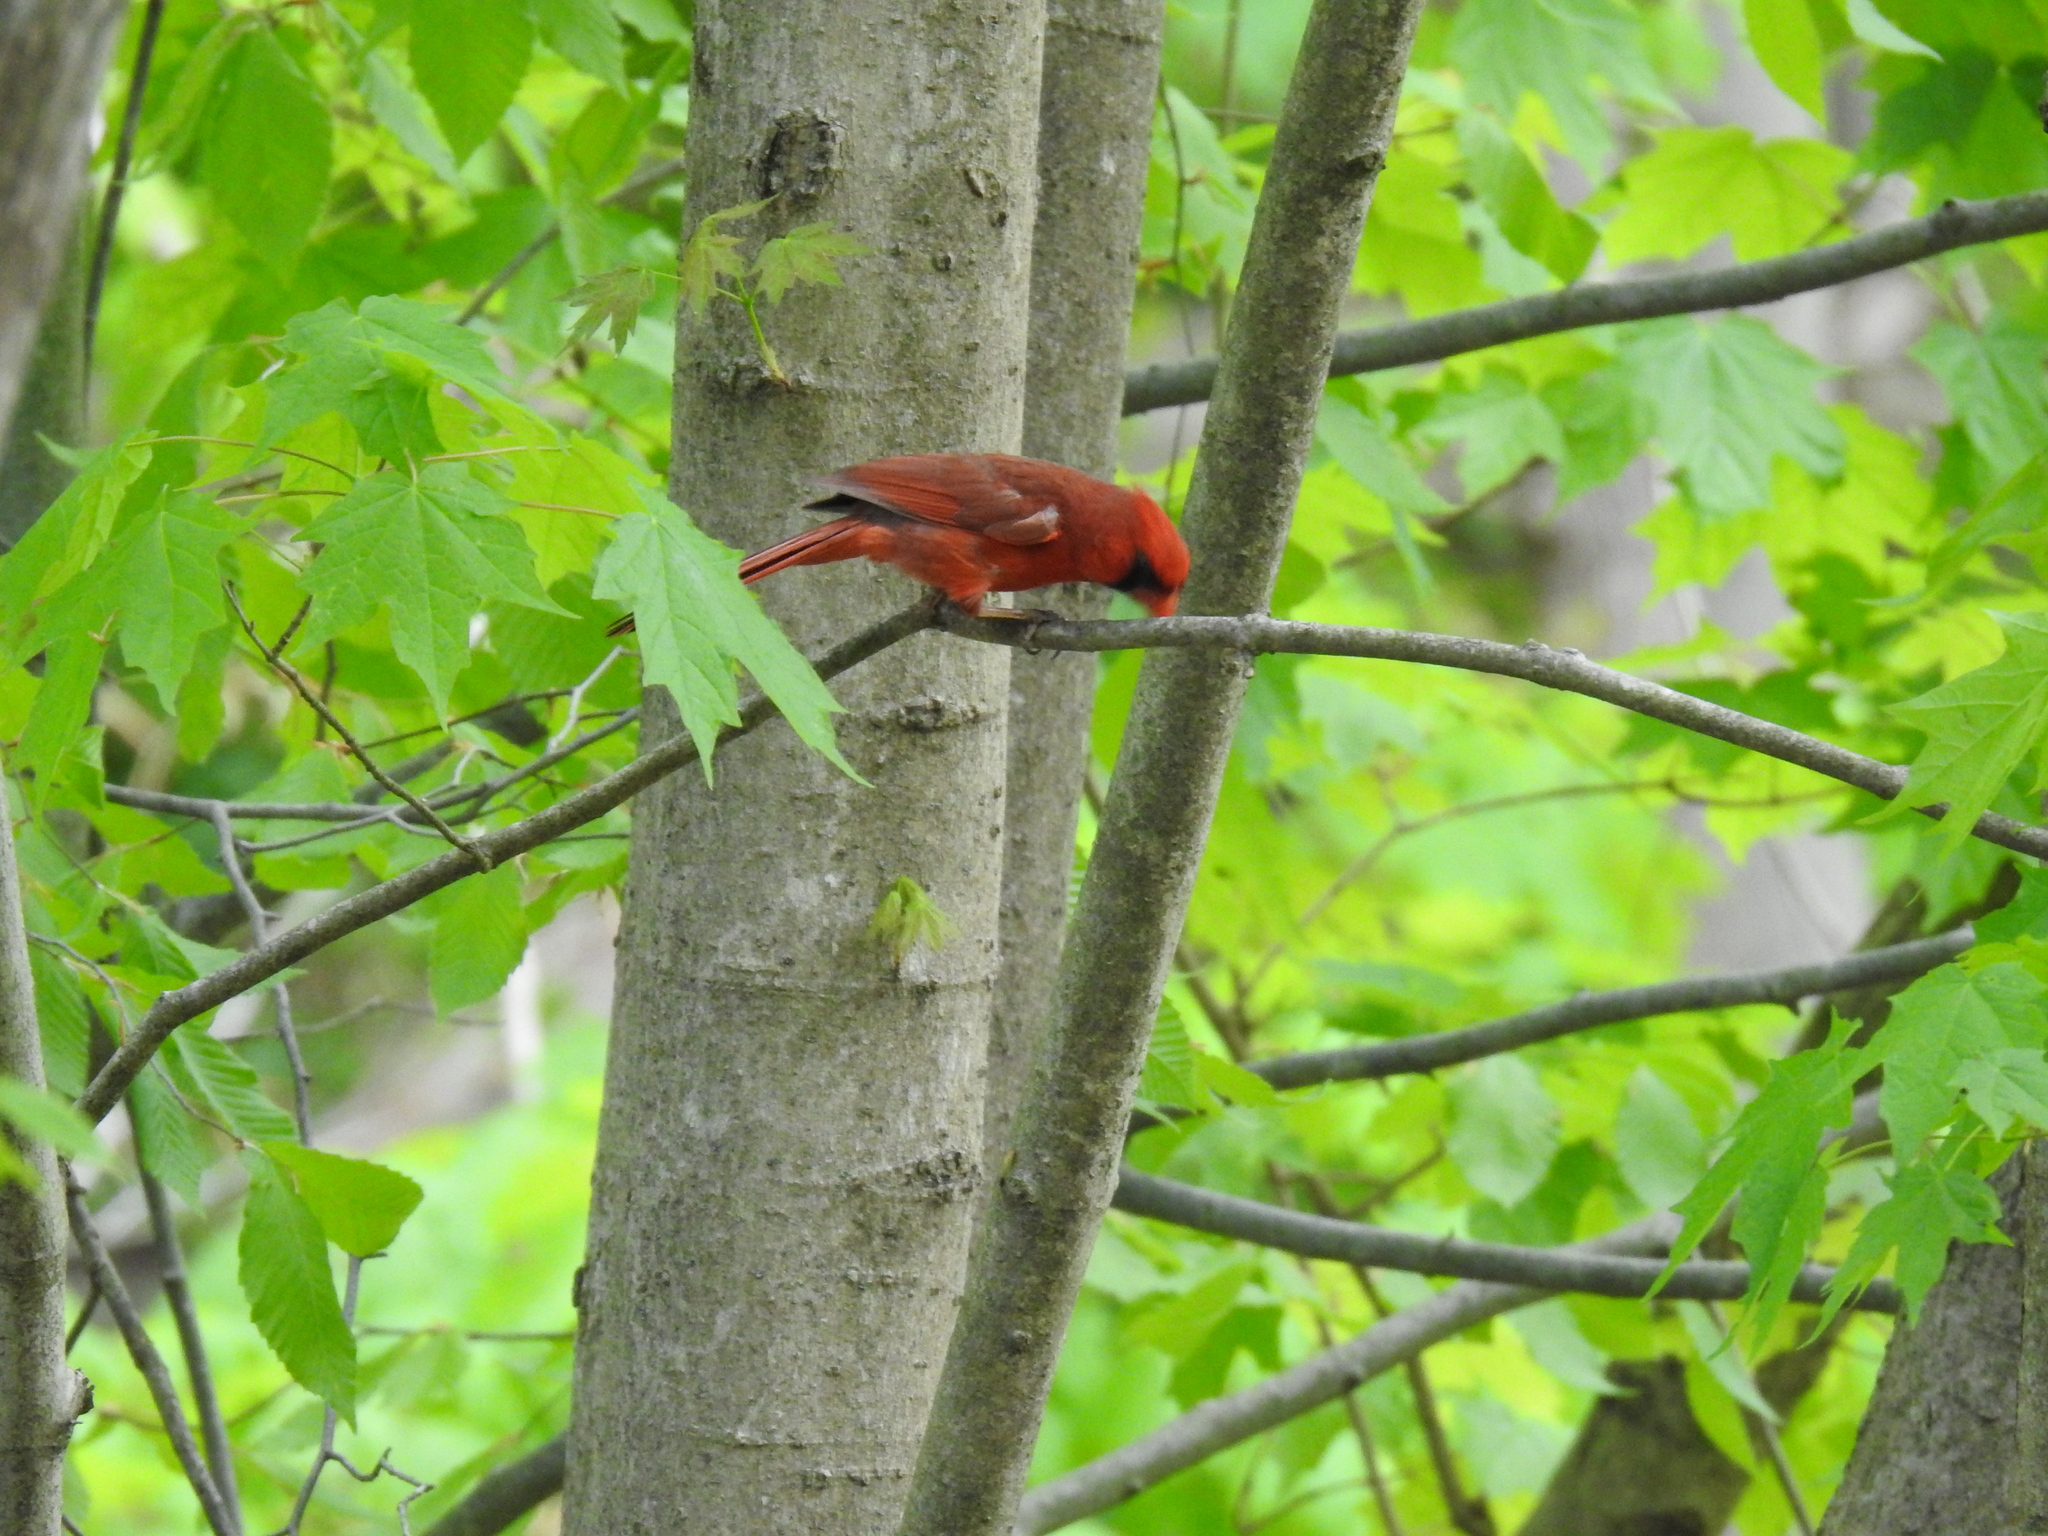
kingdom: Animalia
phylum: Chordata
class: Aves
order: Passeriformes
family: Cardinalidae
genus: Cardinalis
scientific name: Cardinalis cardinalis
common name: Northern cardinal
